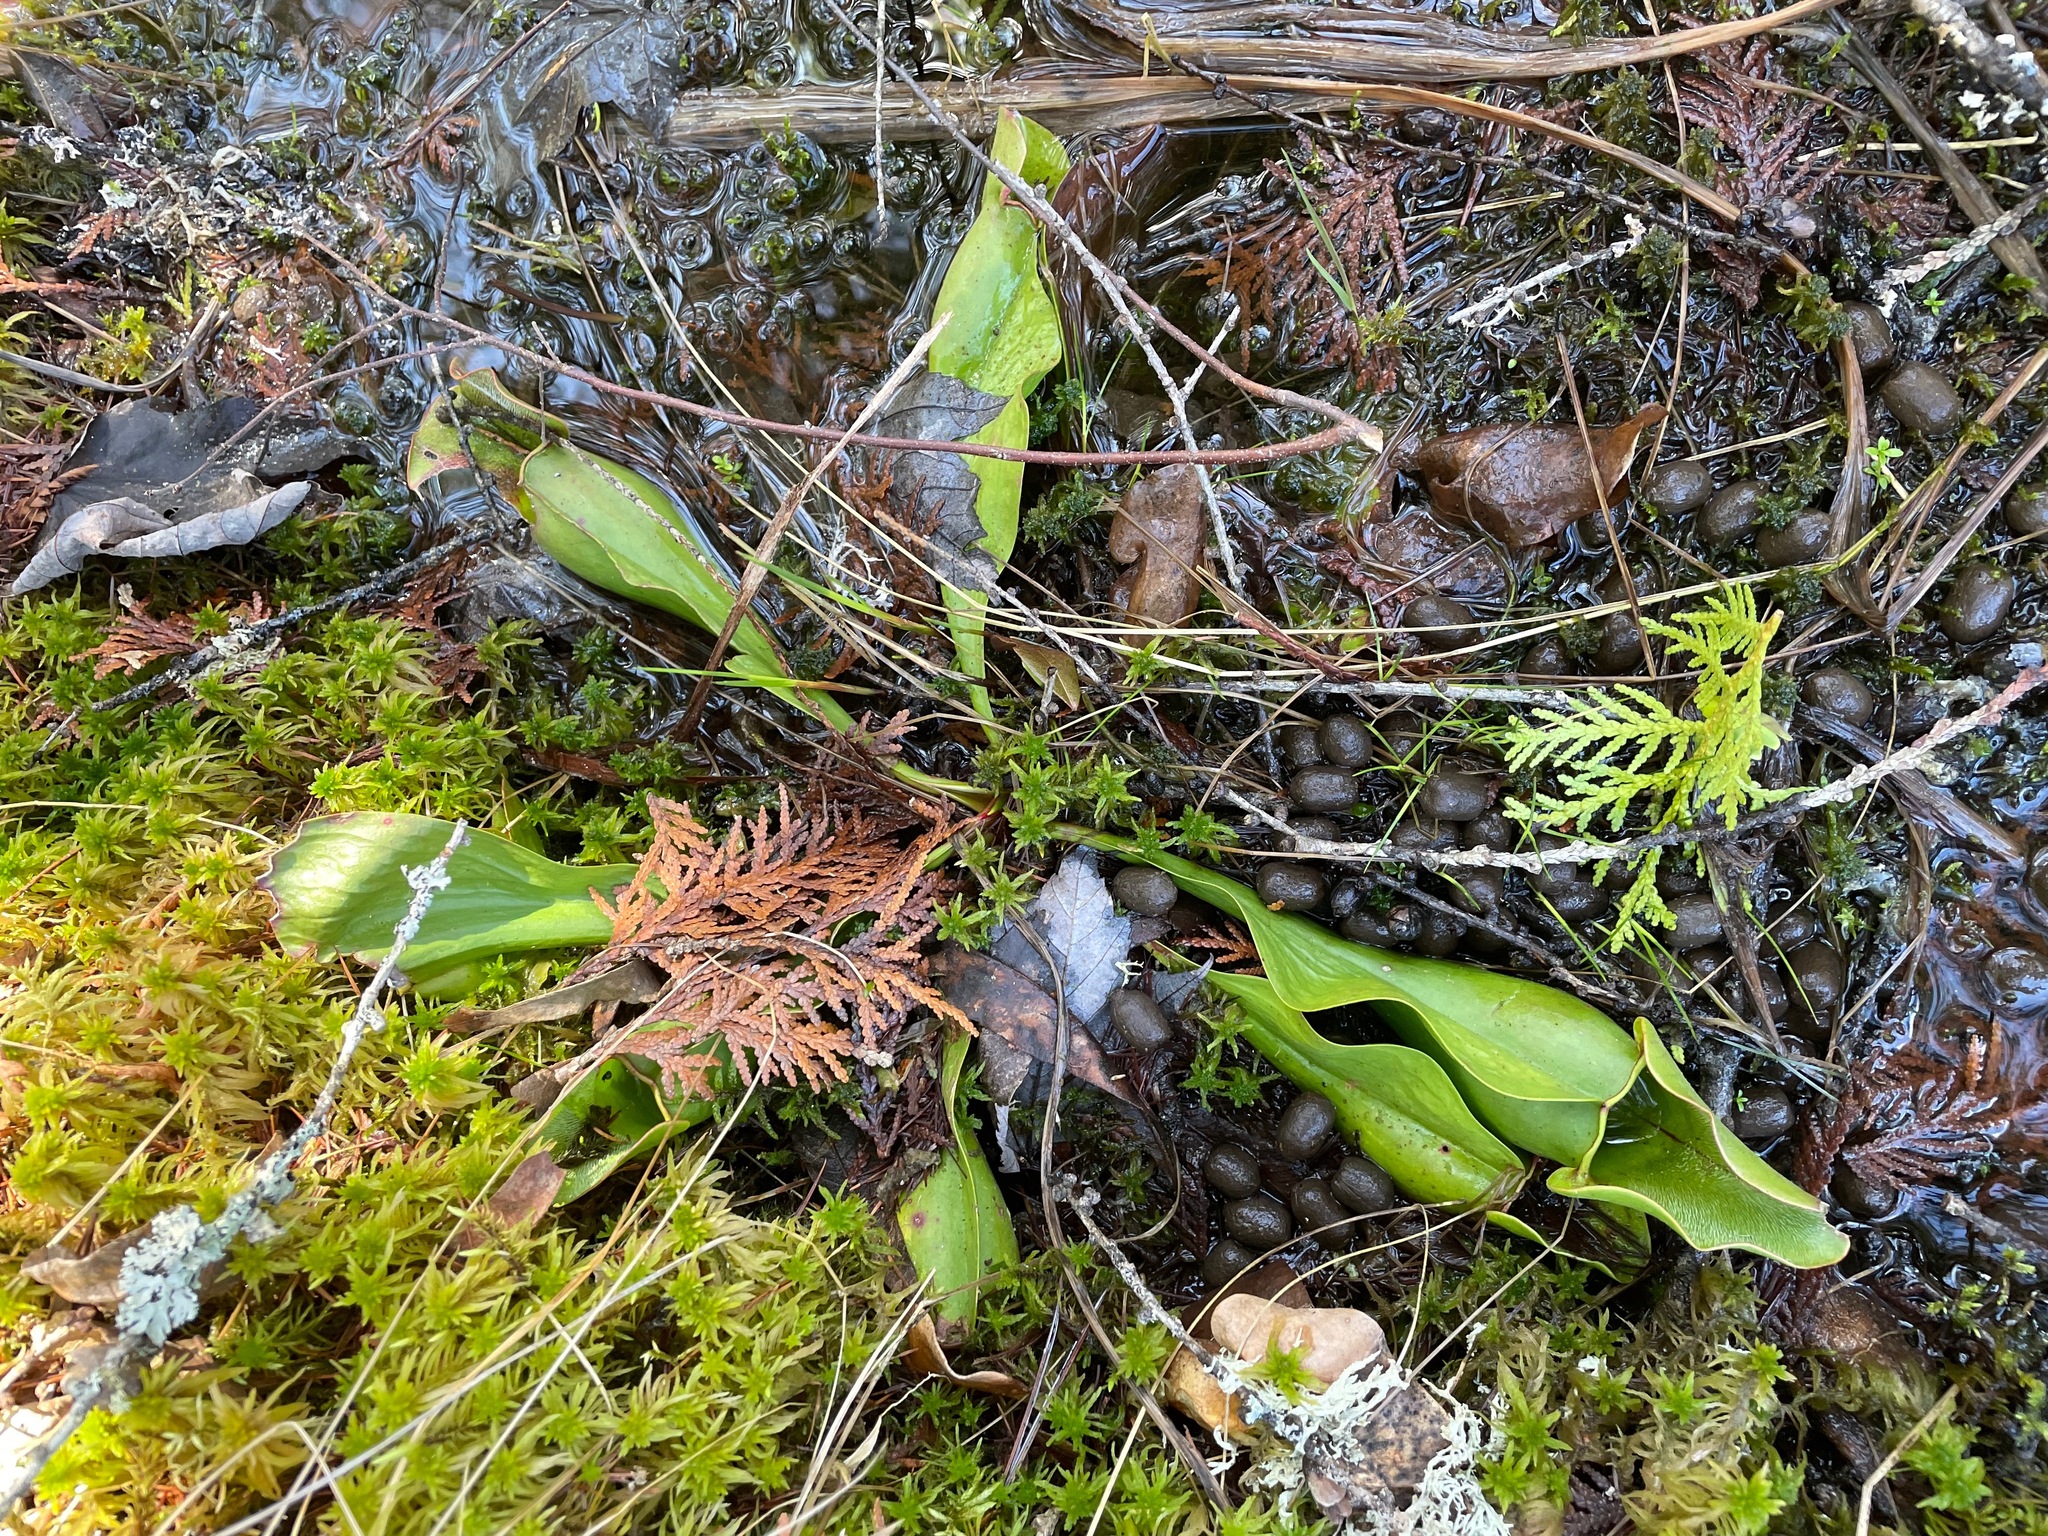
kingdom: Plantae
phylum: Tracheophyta
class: Magnoliopsida
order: Ericales
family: Sarraceniaceae
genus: Sarracenia
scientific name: Sarracenia purpurea
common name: Pitcherplant
